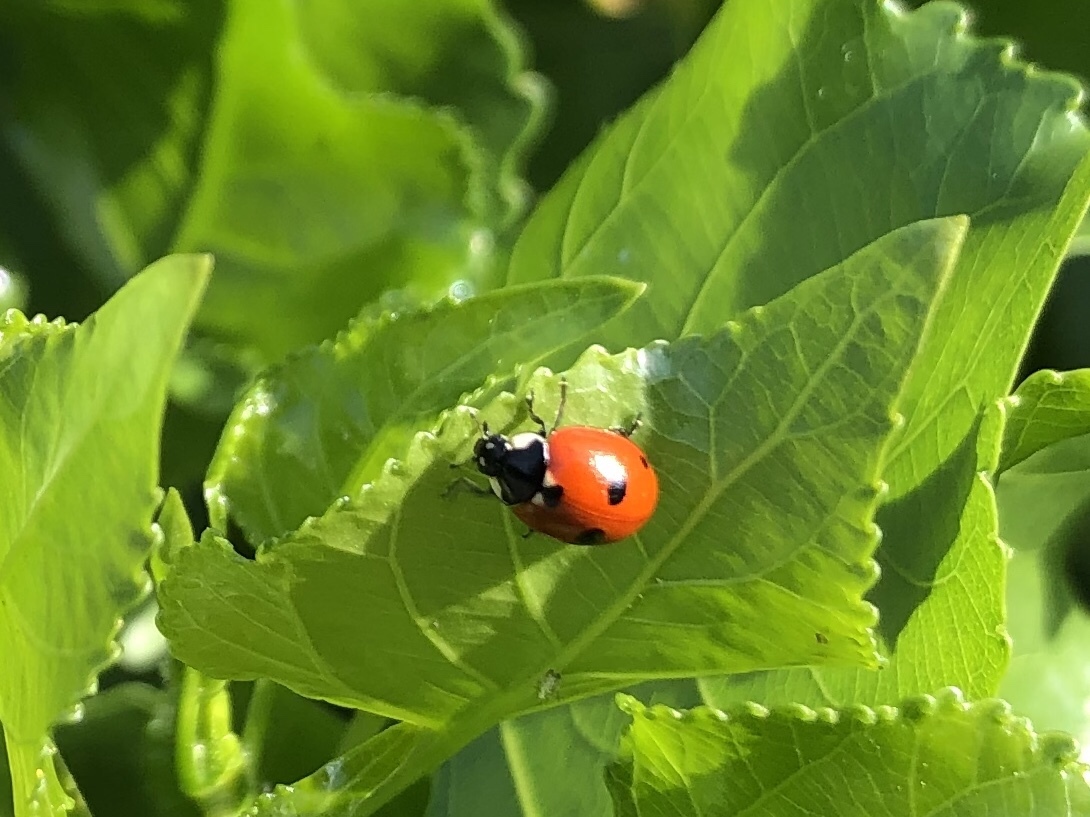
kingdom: Animalia
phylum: Arthropoda
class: Insecta
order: Coleoptera
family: Coccinellidae
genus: Coccinella
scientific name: Coccinella quinquepunctata
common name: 5-spot ladybird
